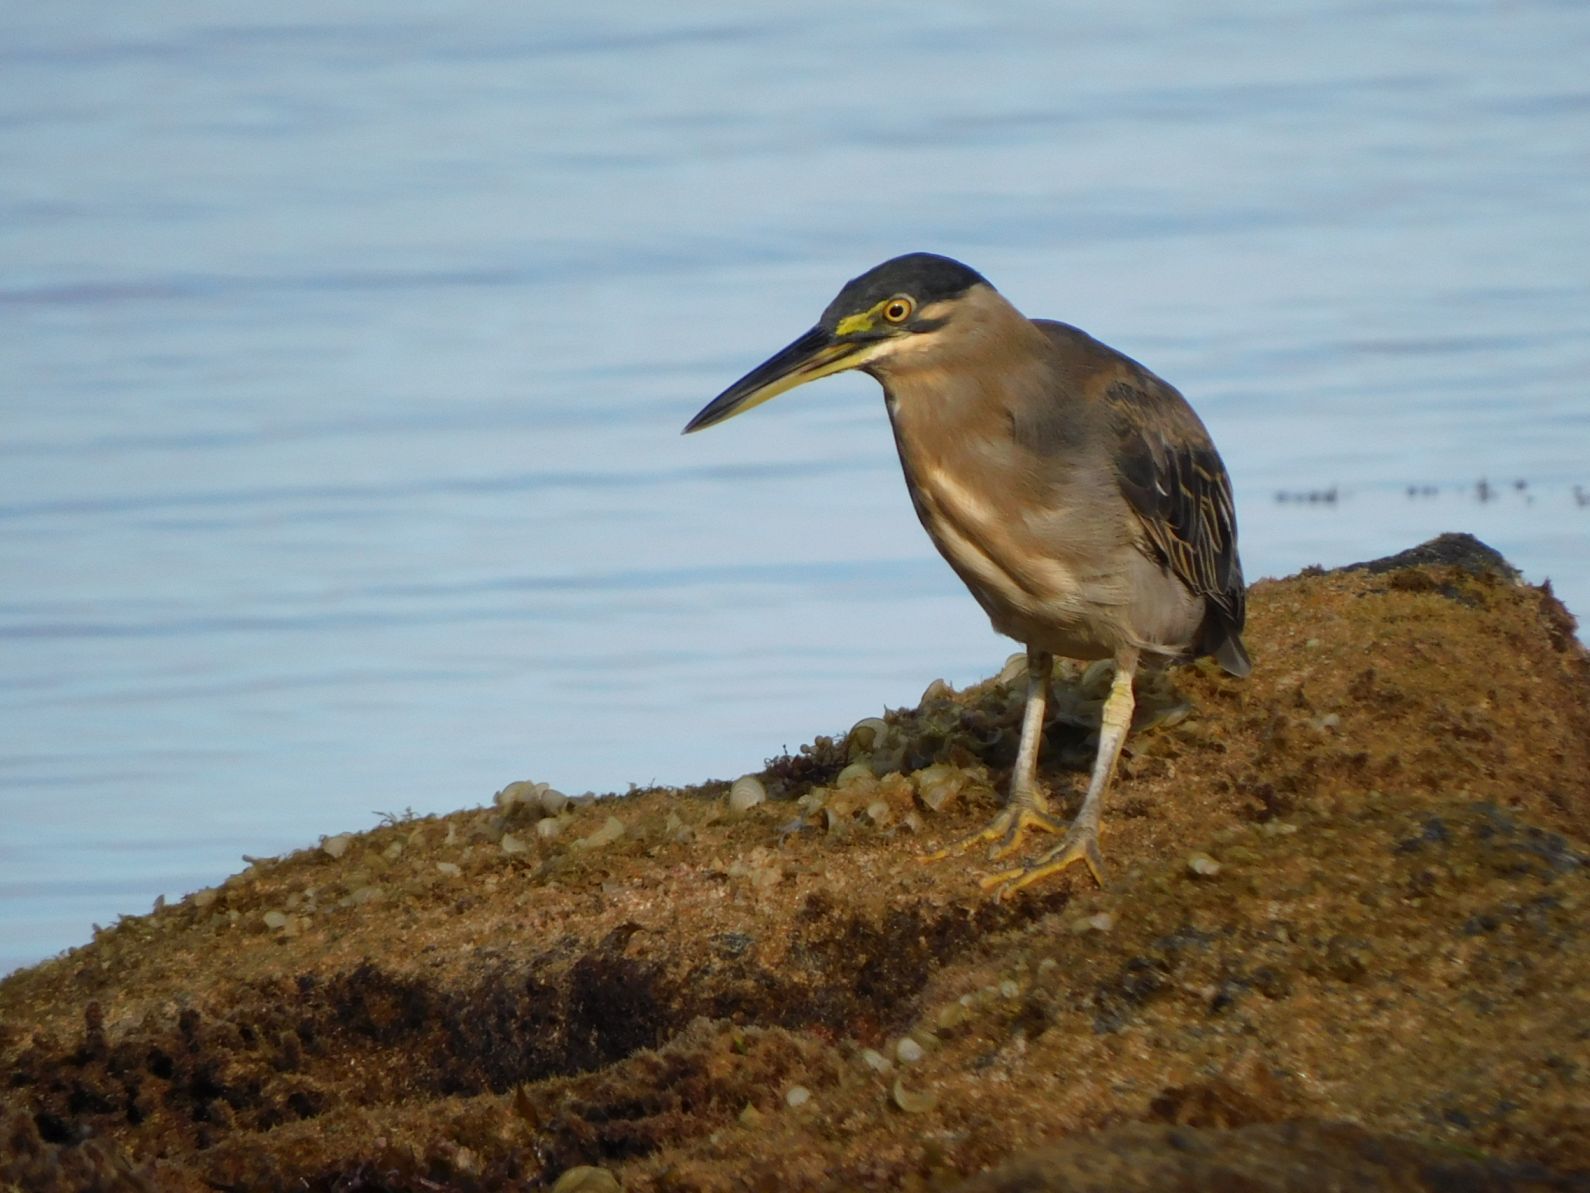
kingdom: Animalia
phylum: Chordata
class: Aves
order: Pelecaniformes
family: Ardeidae
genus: Butorides
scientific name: Butorides striata
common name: Striated heron
